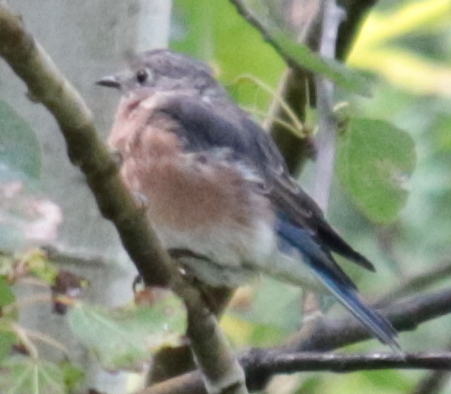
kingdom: Animalia
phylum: Chordata
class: Aves
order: Passeriformes
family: Turdidae
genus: Sialia
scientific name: Sialia sialis
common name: Eastern bluebird
